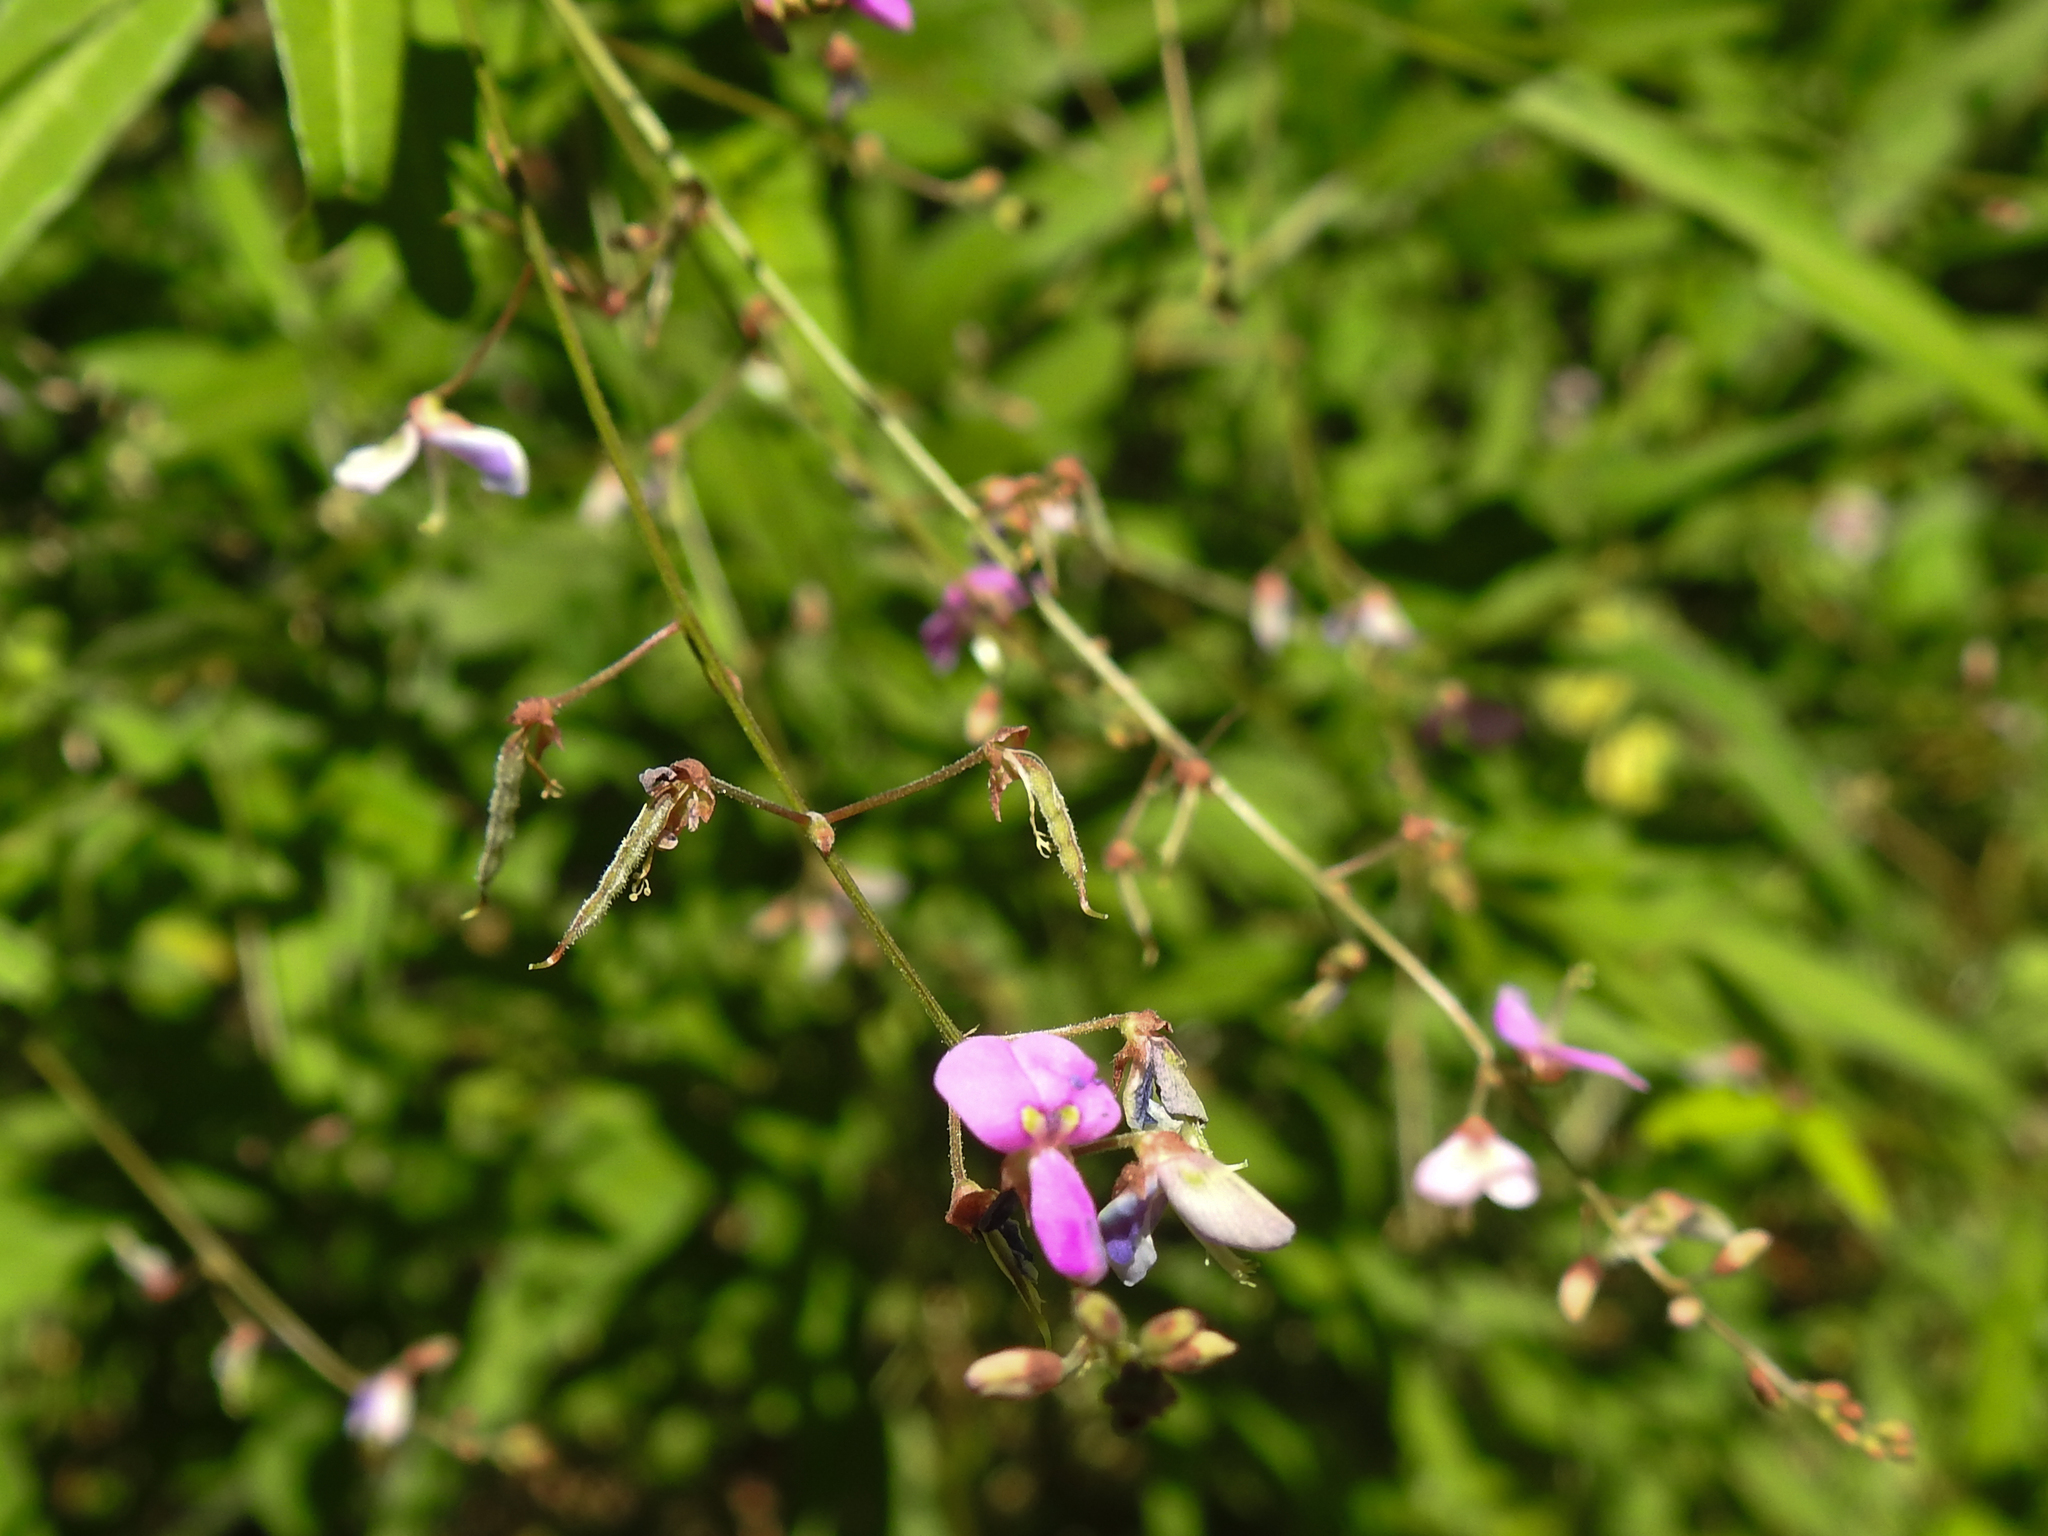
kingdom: Plantae
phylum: Tracheophyta
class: Magnoliopsida
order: Fabales
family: Fabaceae
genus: Desmodium
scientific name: Desmodium paniculatum
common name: Panicled tick-clover
